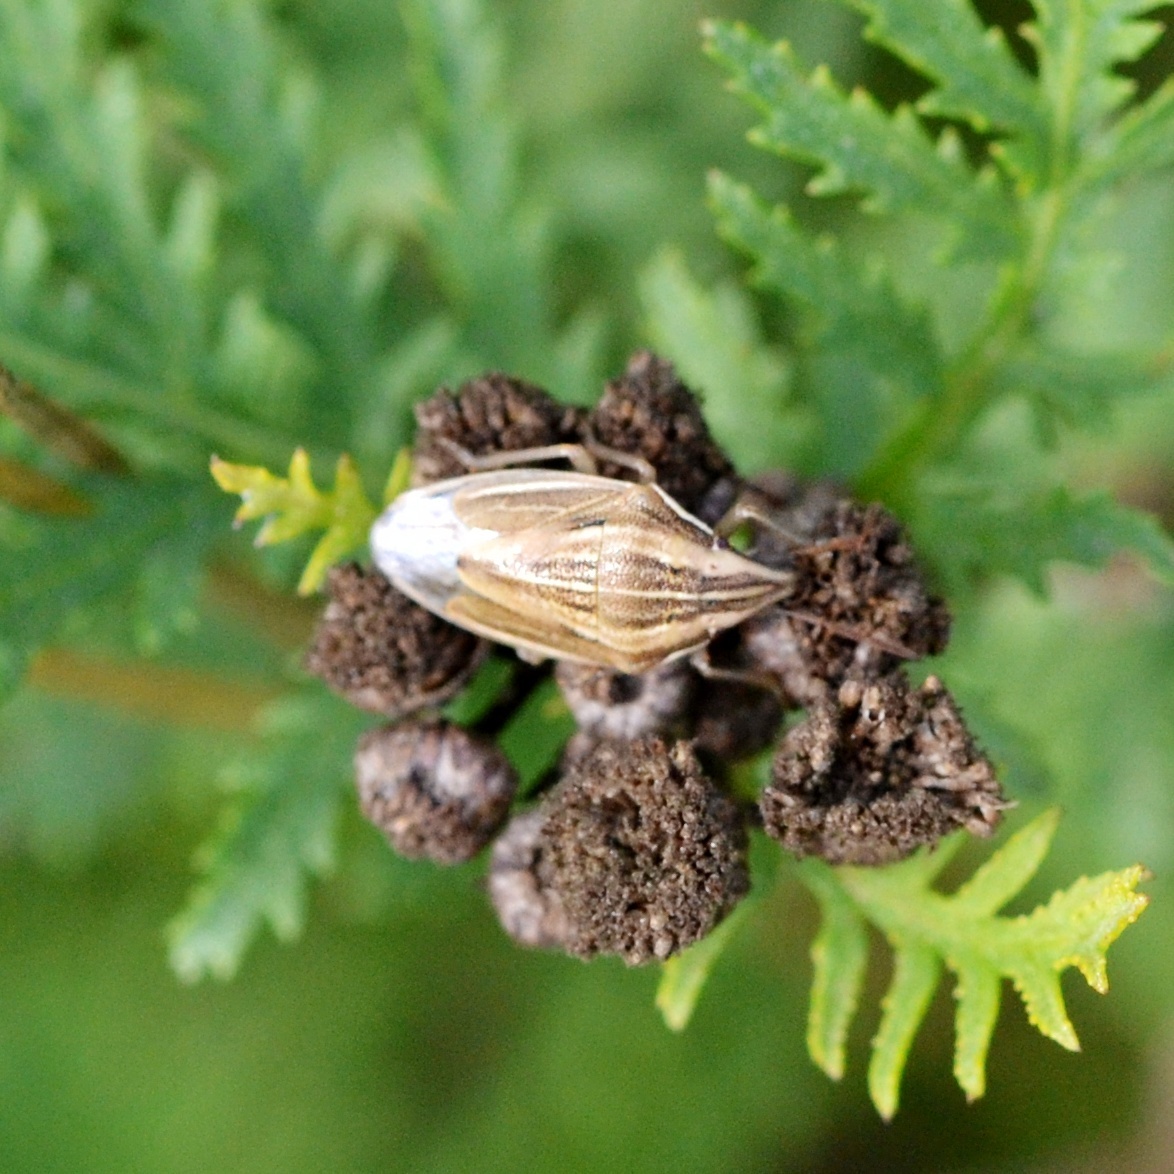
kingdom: Animalia
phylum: Arthropoda
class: Insecta
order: Hemiptera
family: Pentatomidae
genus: Aelia
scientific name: Aelia acuminata
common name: Bishop's mitre
